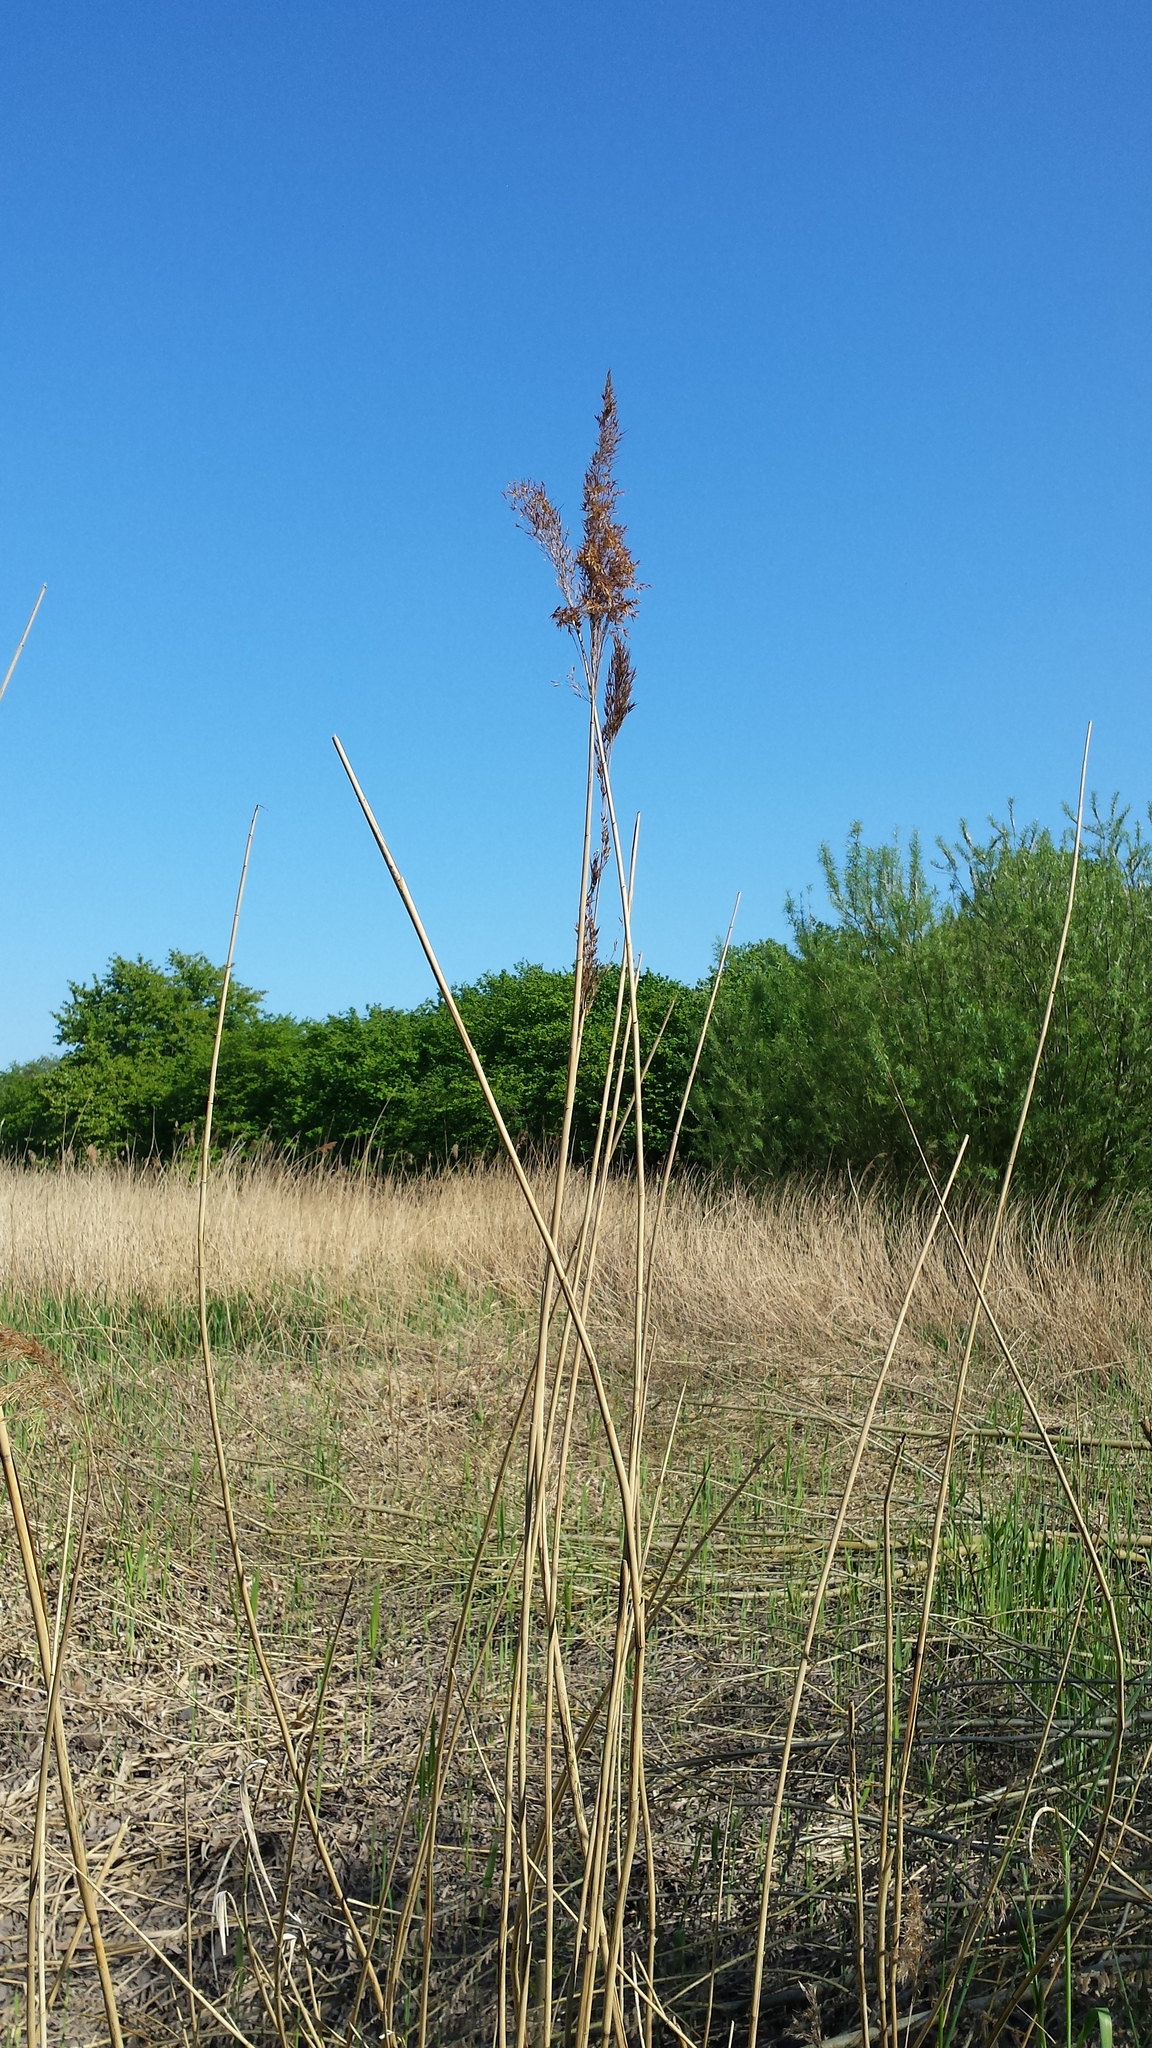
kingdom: Plantae
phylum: Tracheophyta
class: Liliopsida
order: Poales
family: Poaceae
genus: Phragmites
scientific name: Phragmites australis
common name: Common reed
